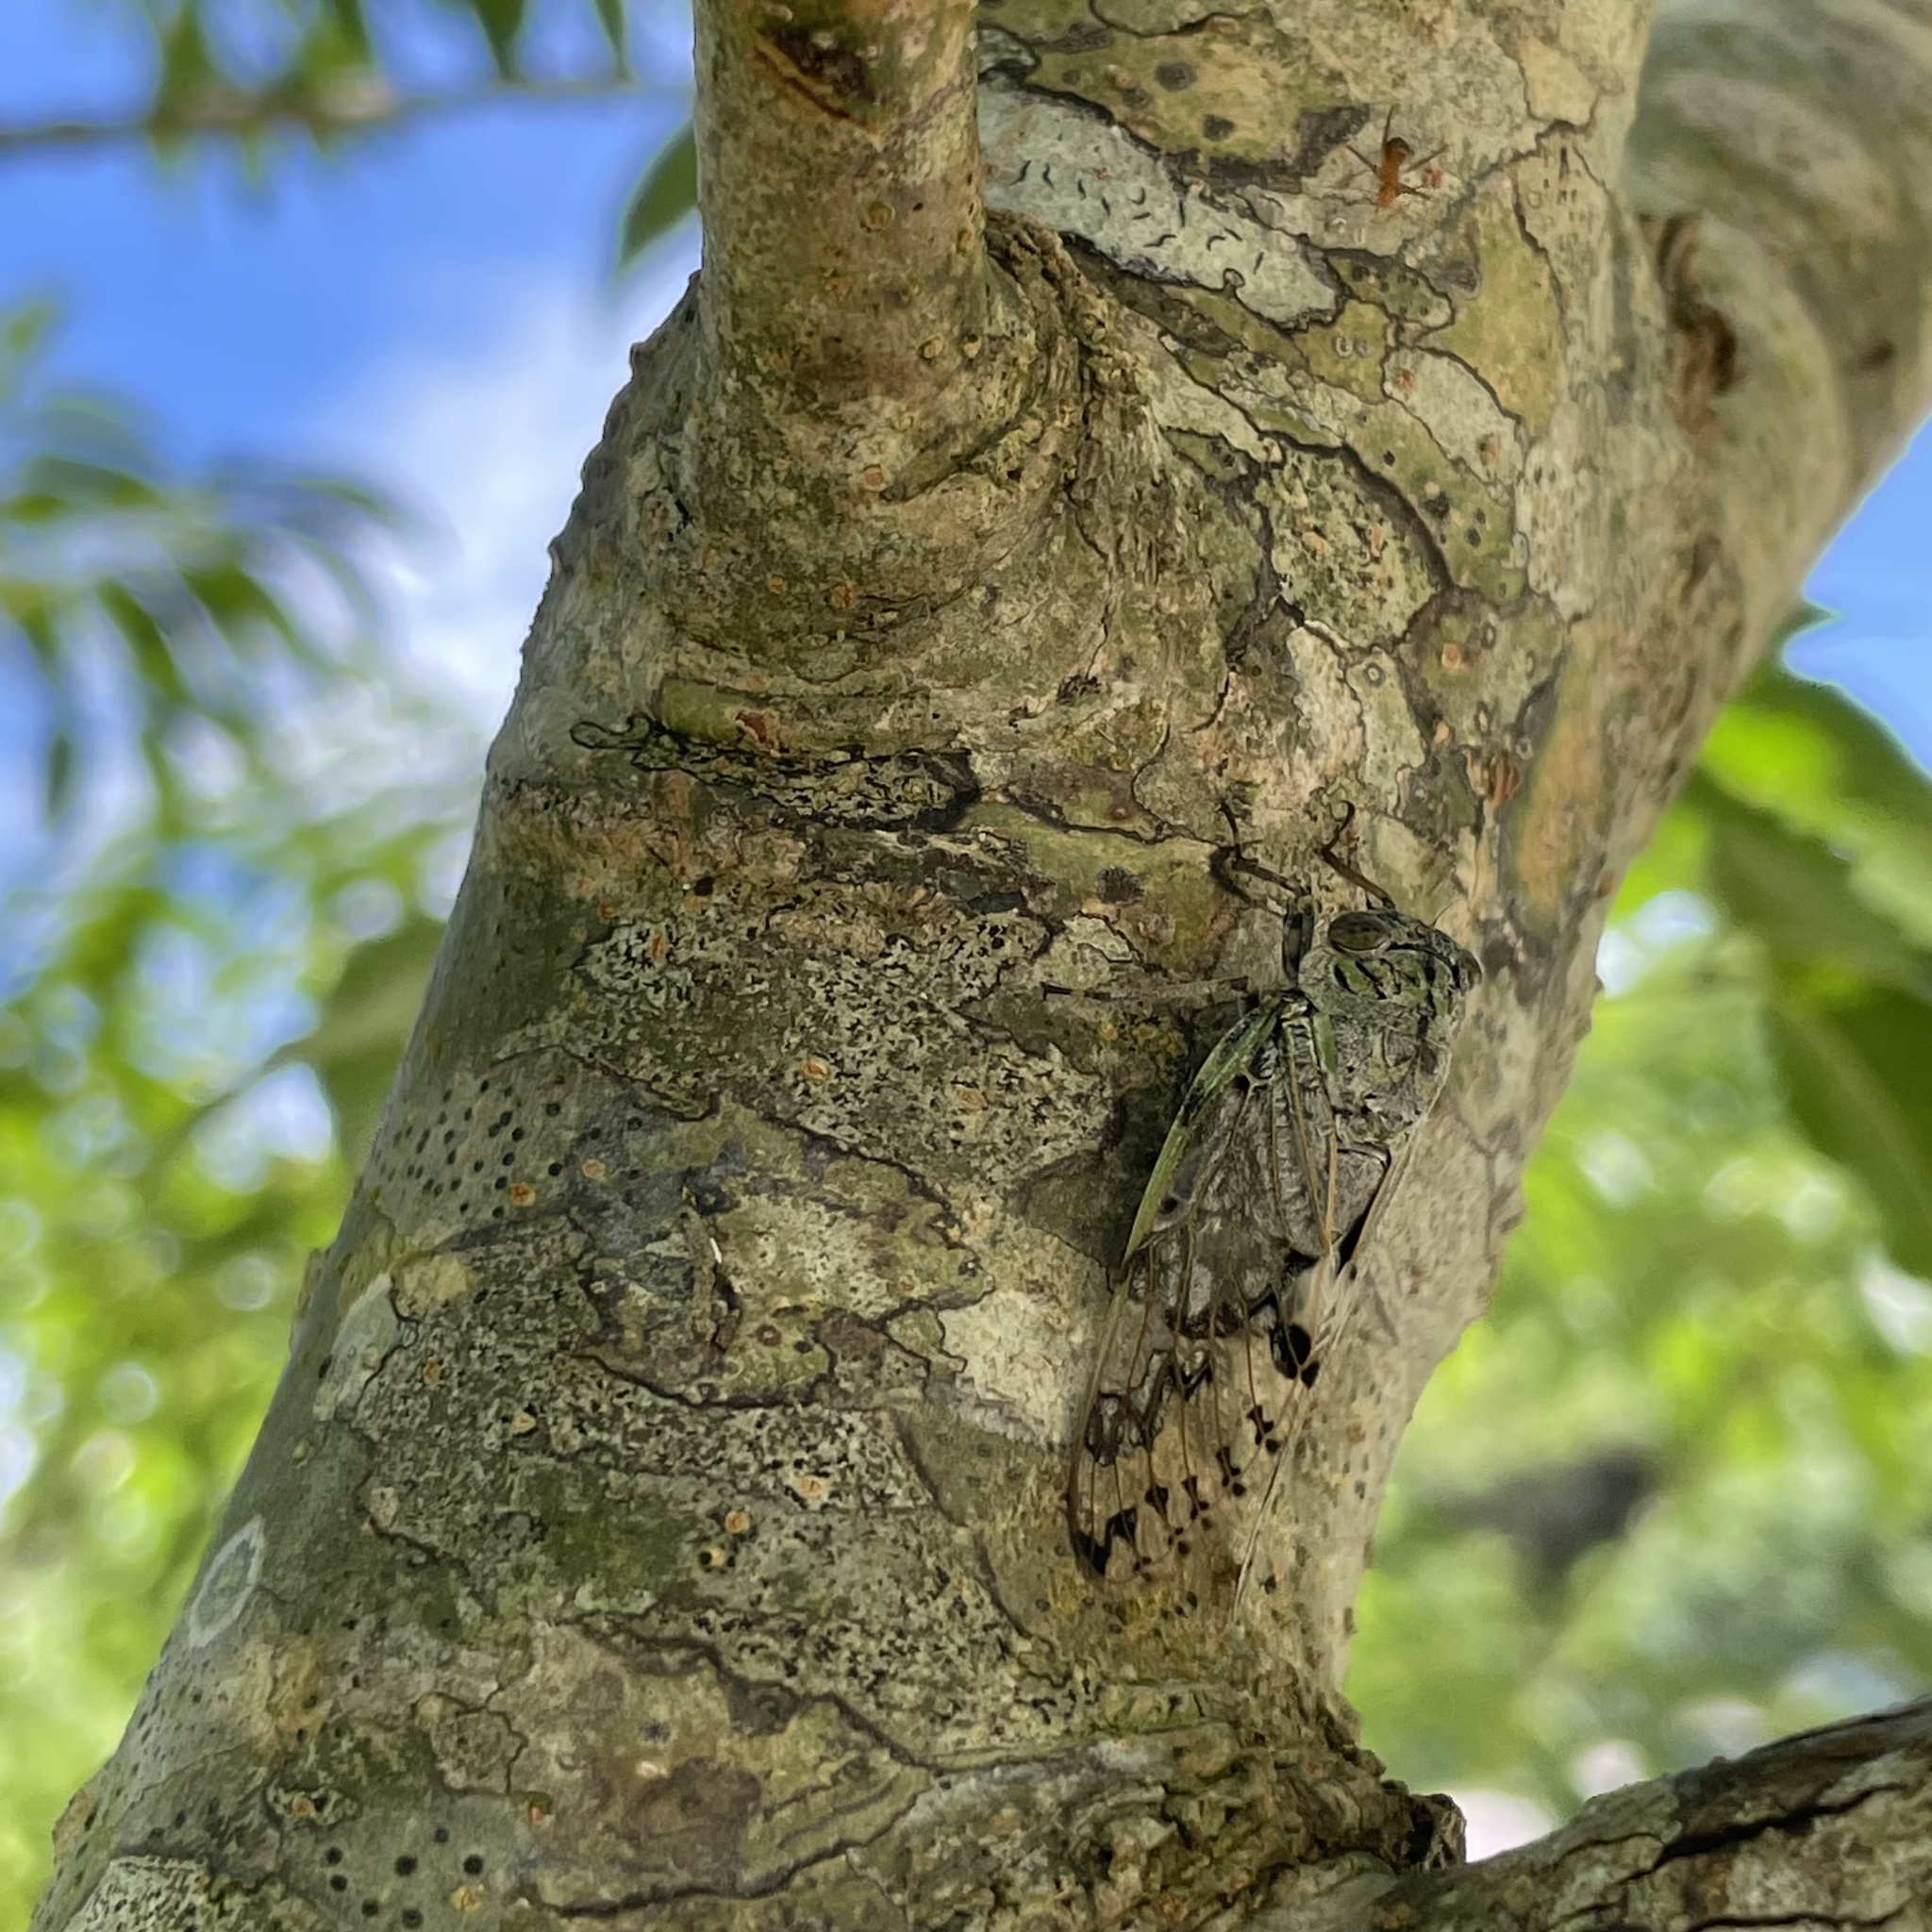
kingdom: Animalia
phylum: Arthropoda
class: Insecta
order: Hemiptera
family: Cicadidae
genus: Platypleura
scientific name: Platypleura kuroiwae
